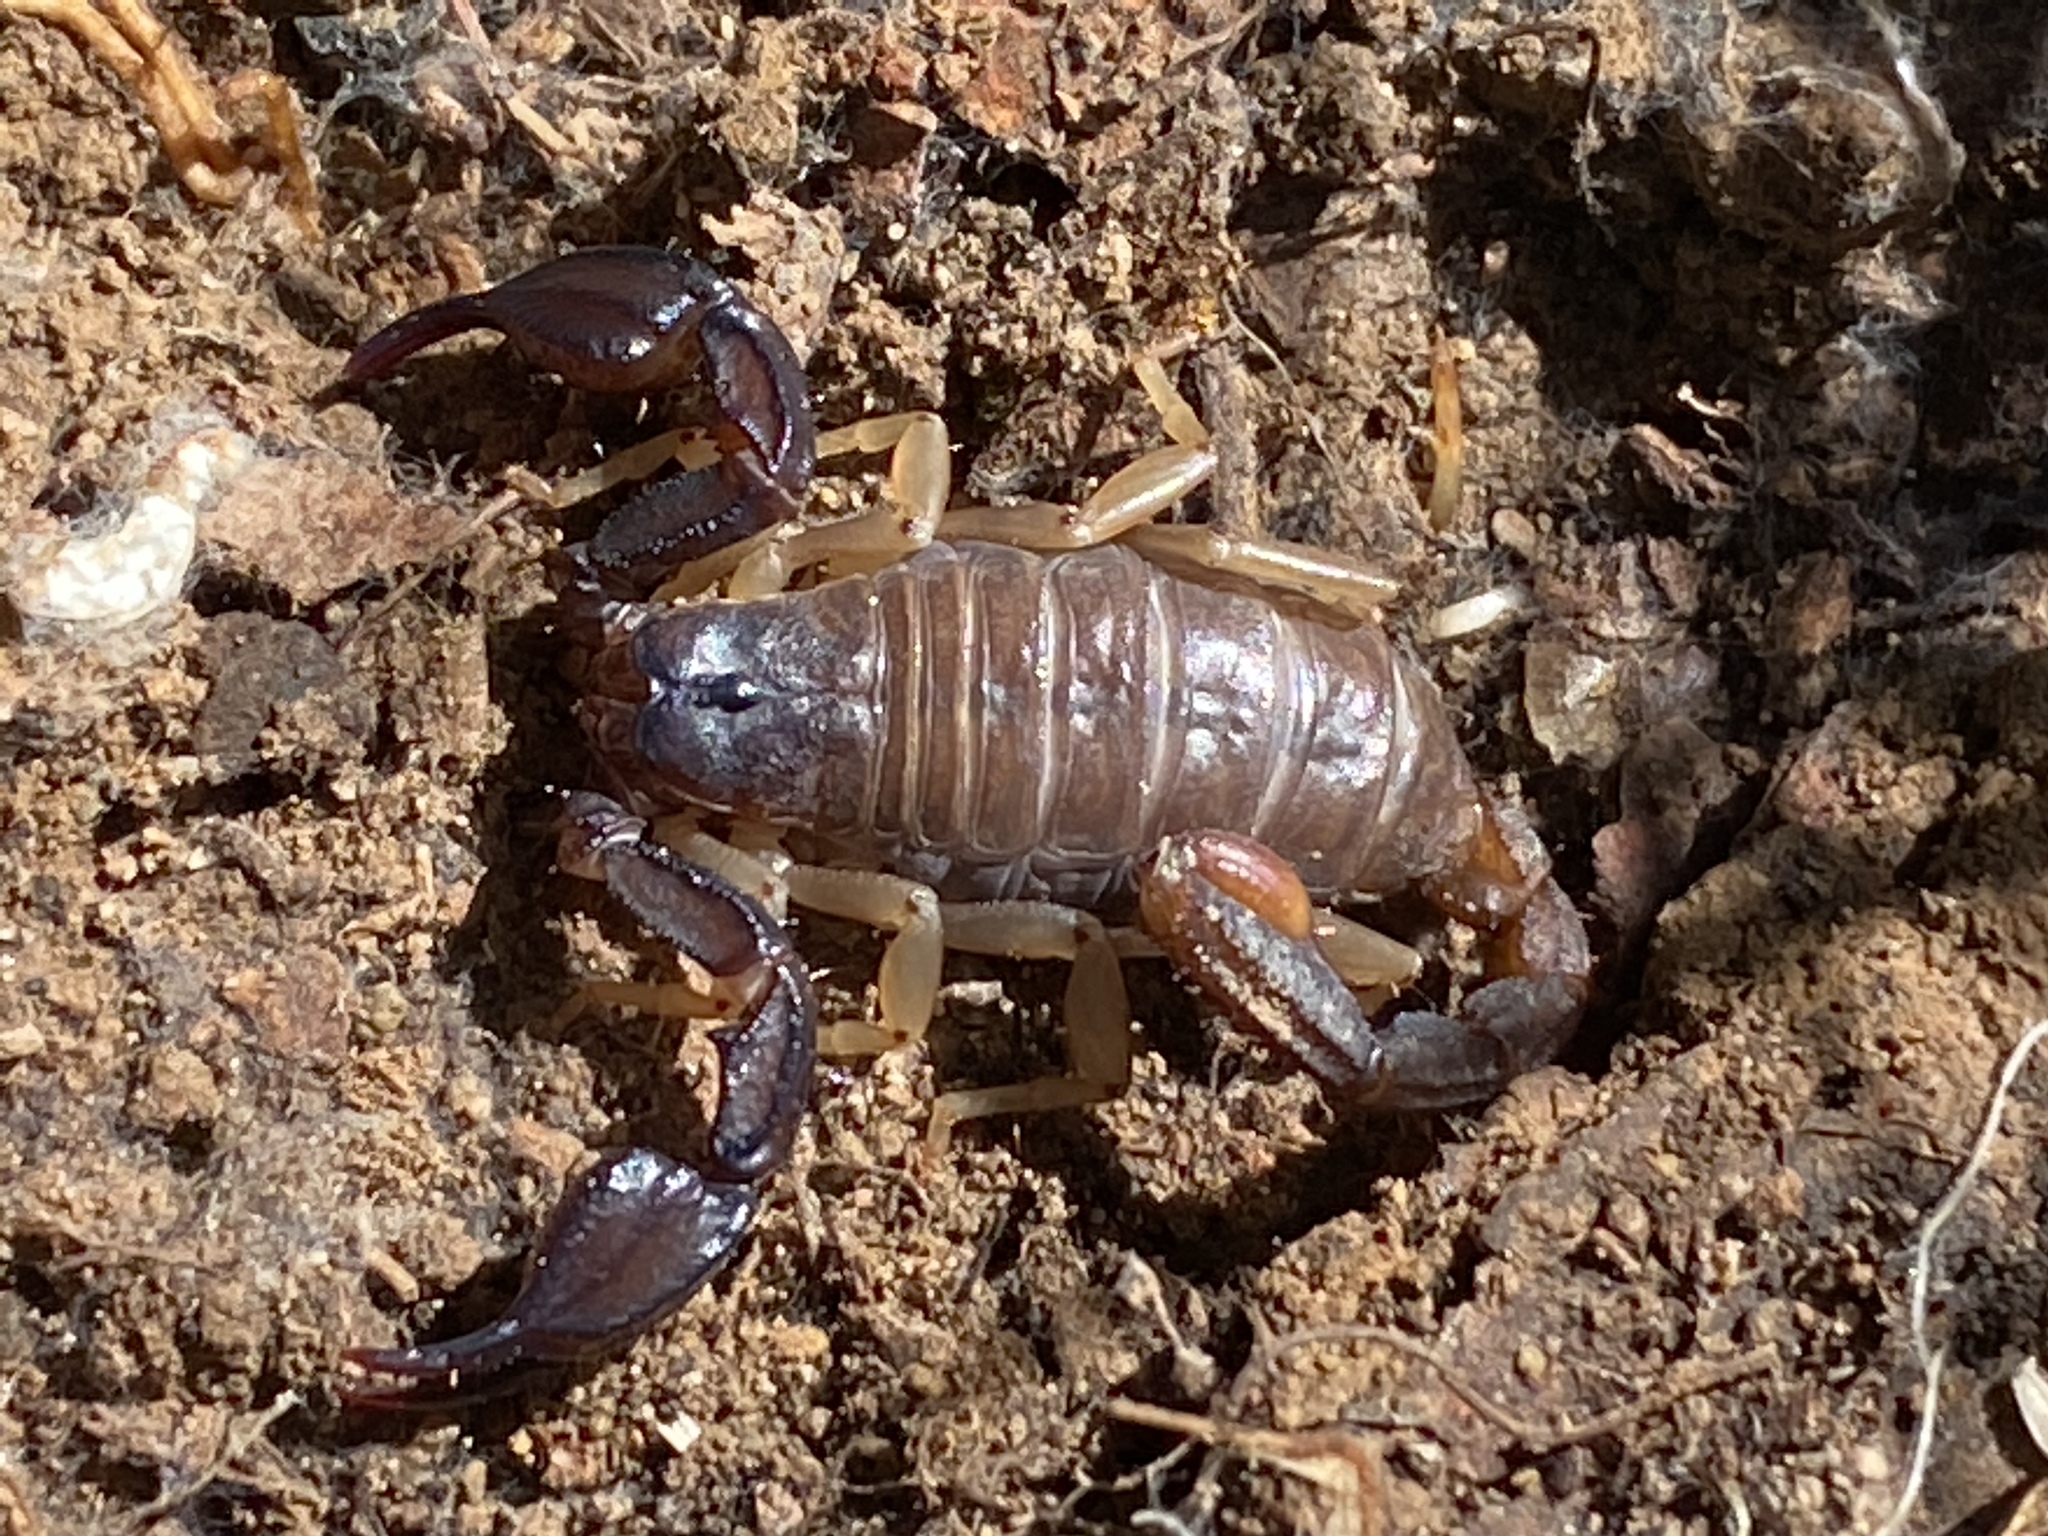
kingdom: Animalia
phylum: Arthropoda
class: Arachnida
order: Scorpiones
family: Chactidae
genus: Uroctonus
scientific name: Uroctonus mordax
